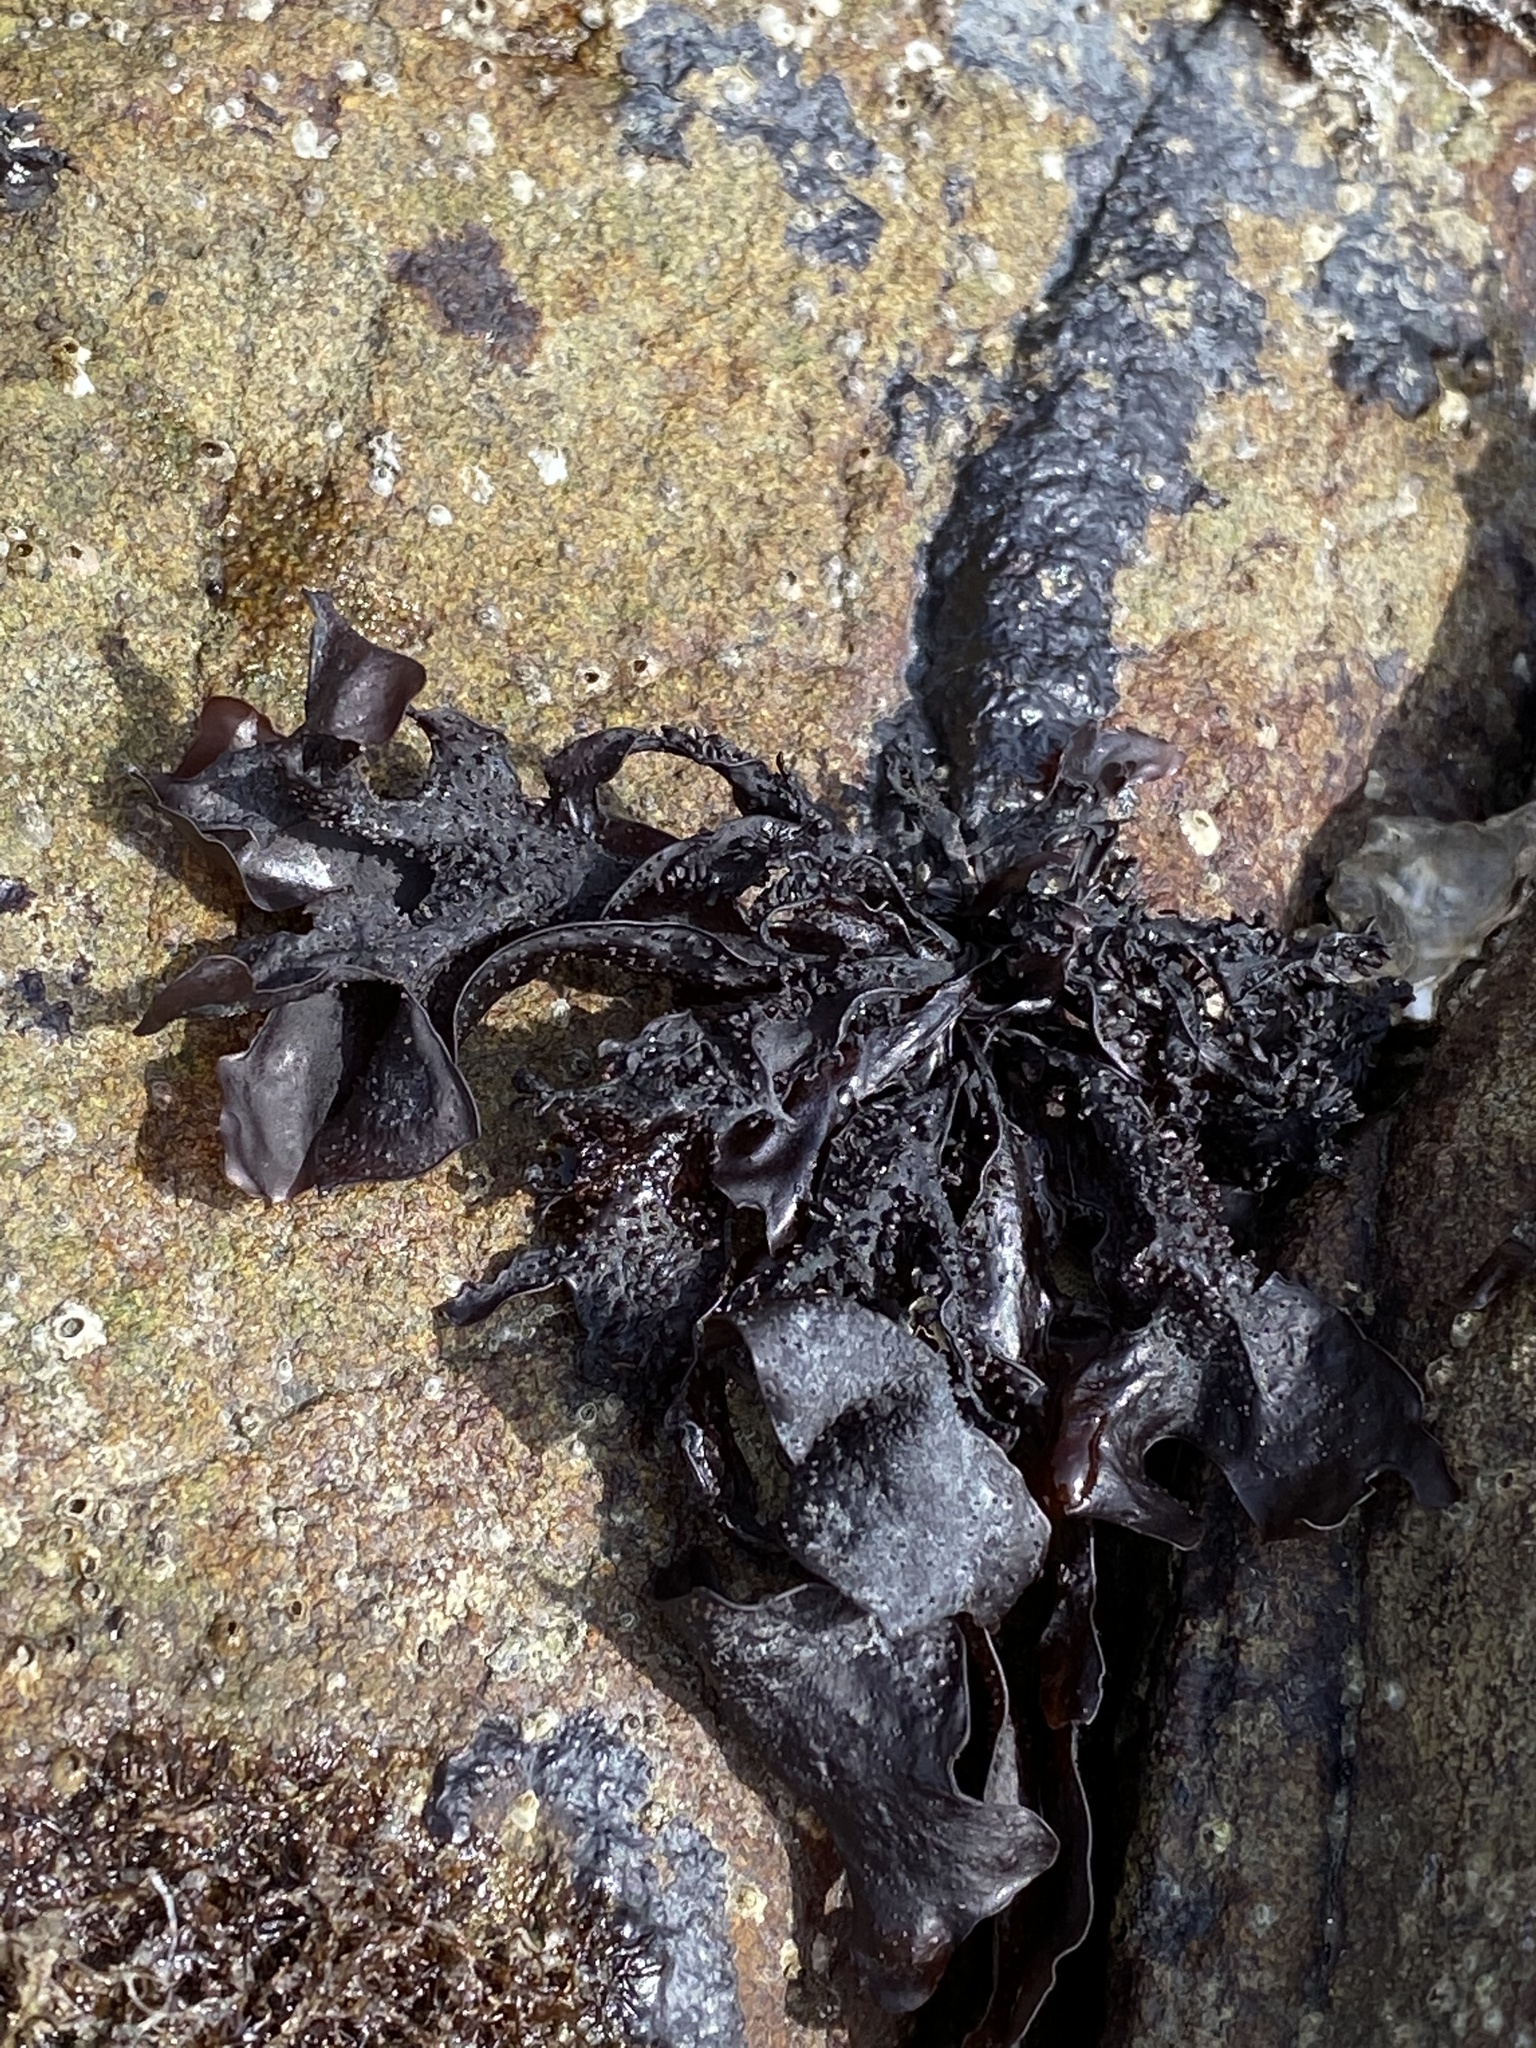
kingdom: Plantae
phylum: Rhodophyta
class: Florideophyceae
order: Gigartinales
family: Phyllophoraceae
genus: Mastocarpus
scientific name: Mastocarpus papillatus
